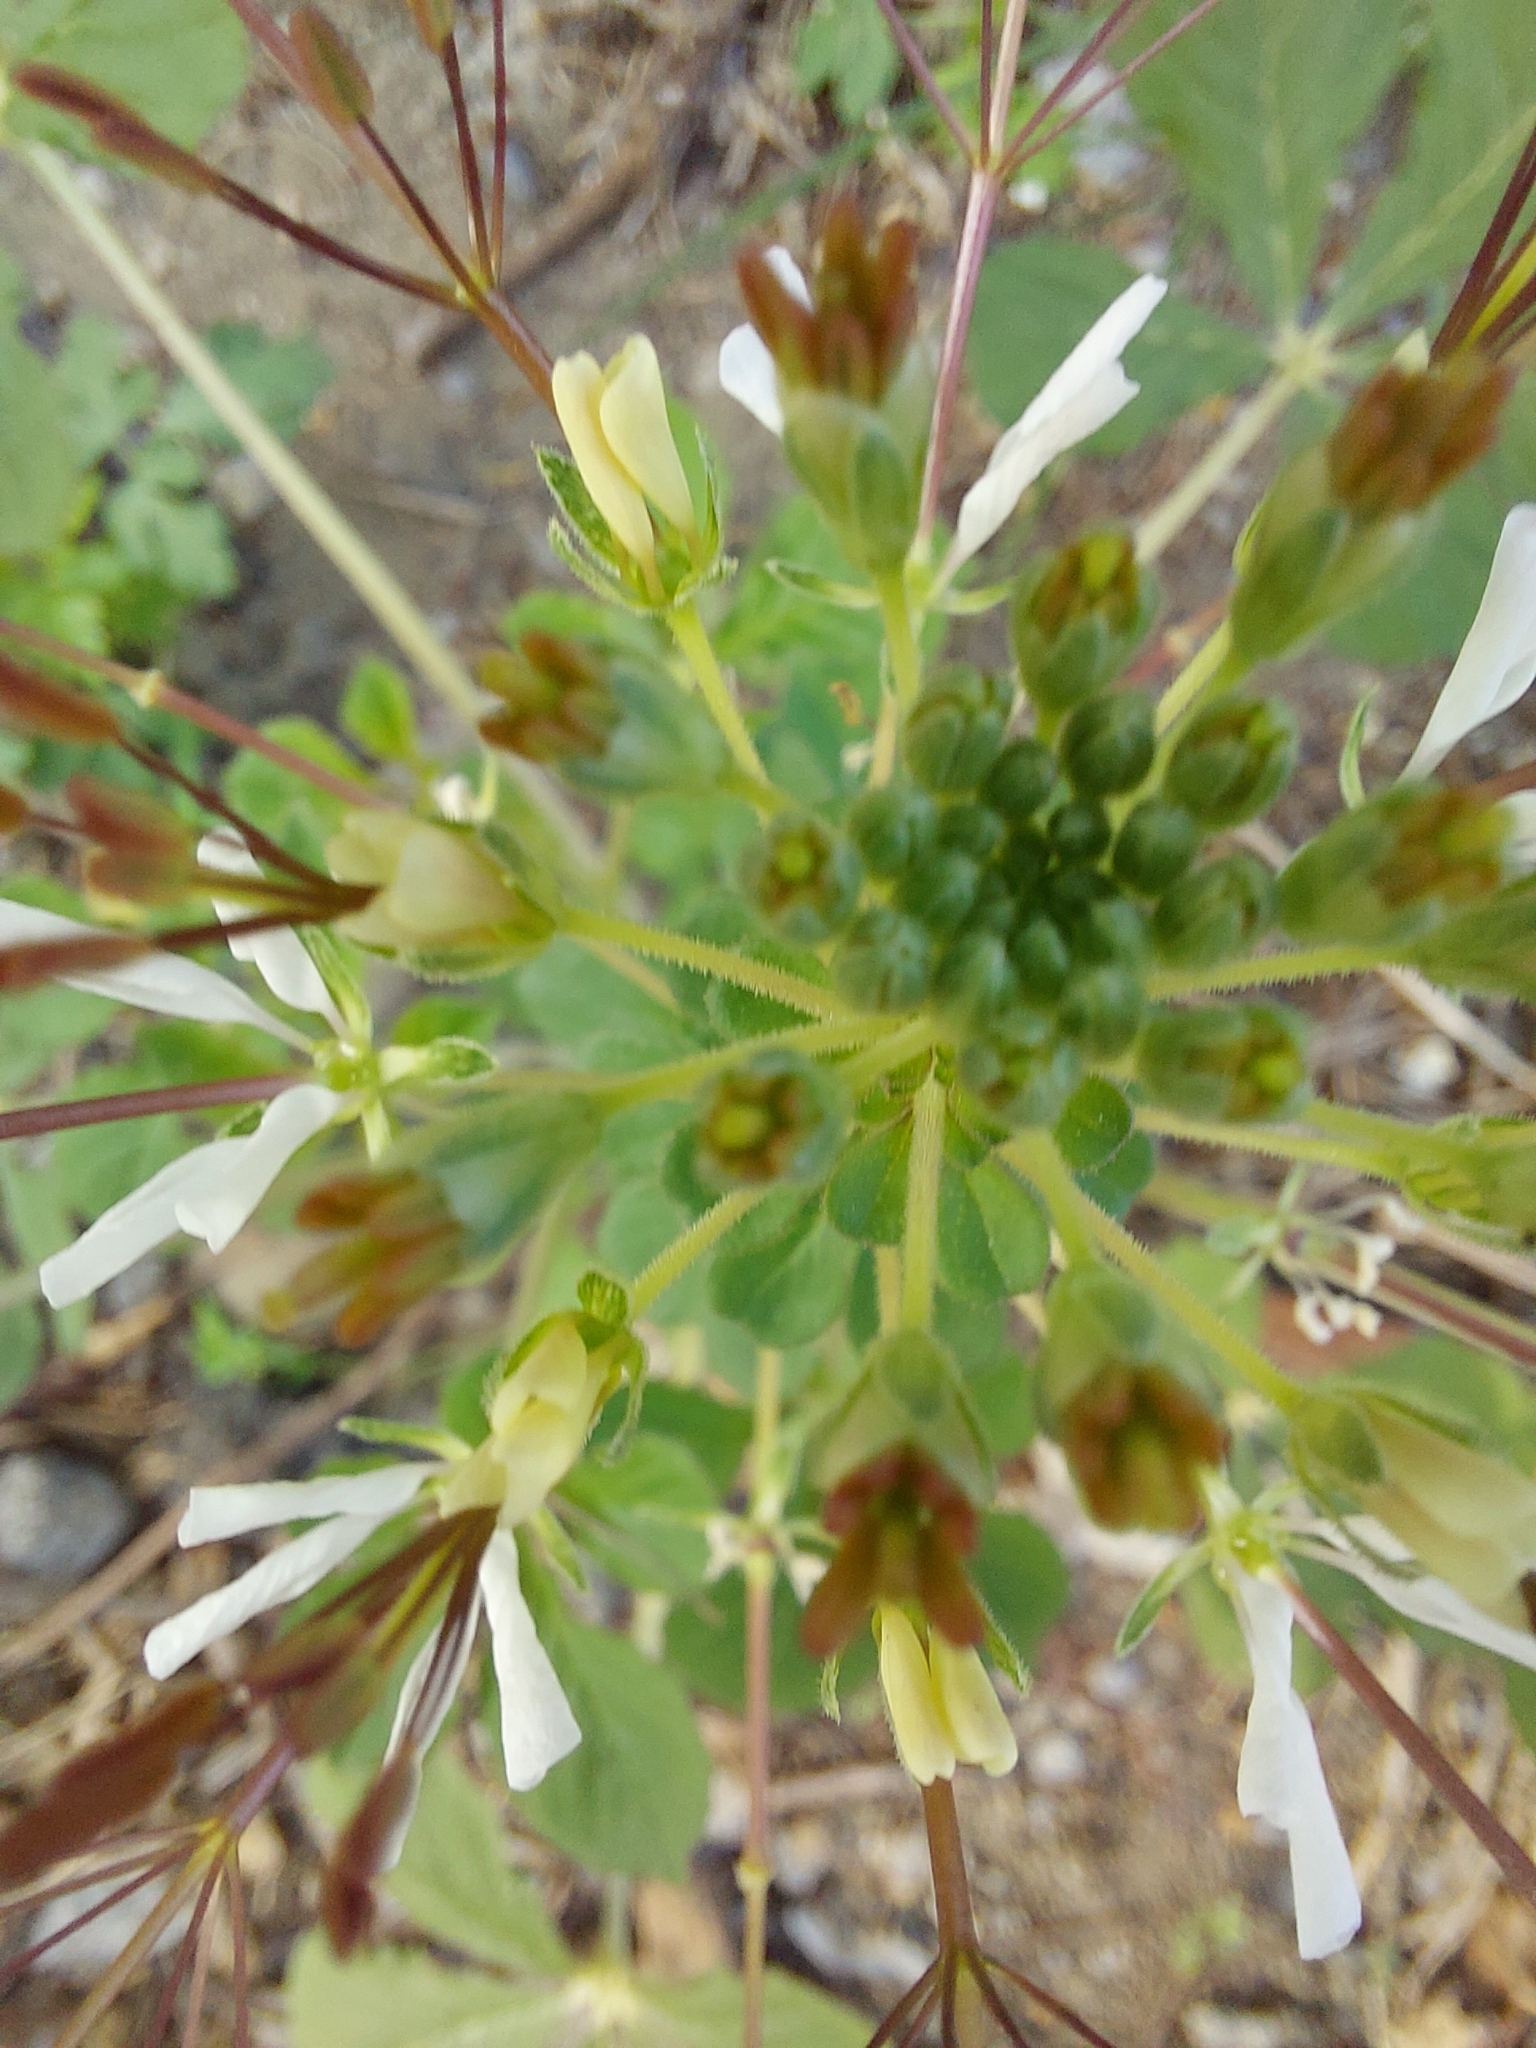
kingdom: Plantae
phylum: Tracheophyta
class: Magnoliopsida
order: Brassicales
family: Cleomaceae
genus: Gynandropsis
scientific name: Gynandropsis gynandra
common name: Spiderwisp
